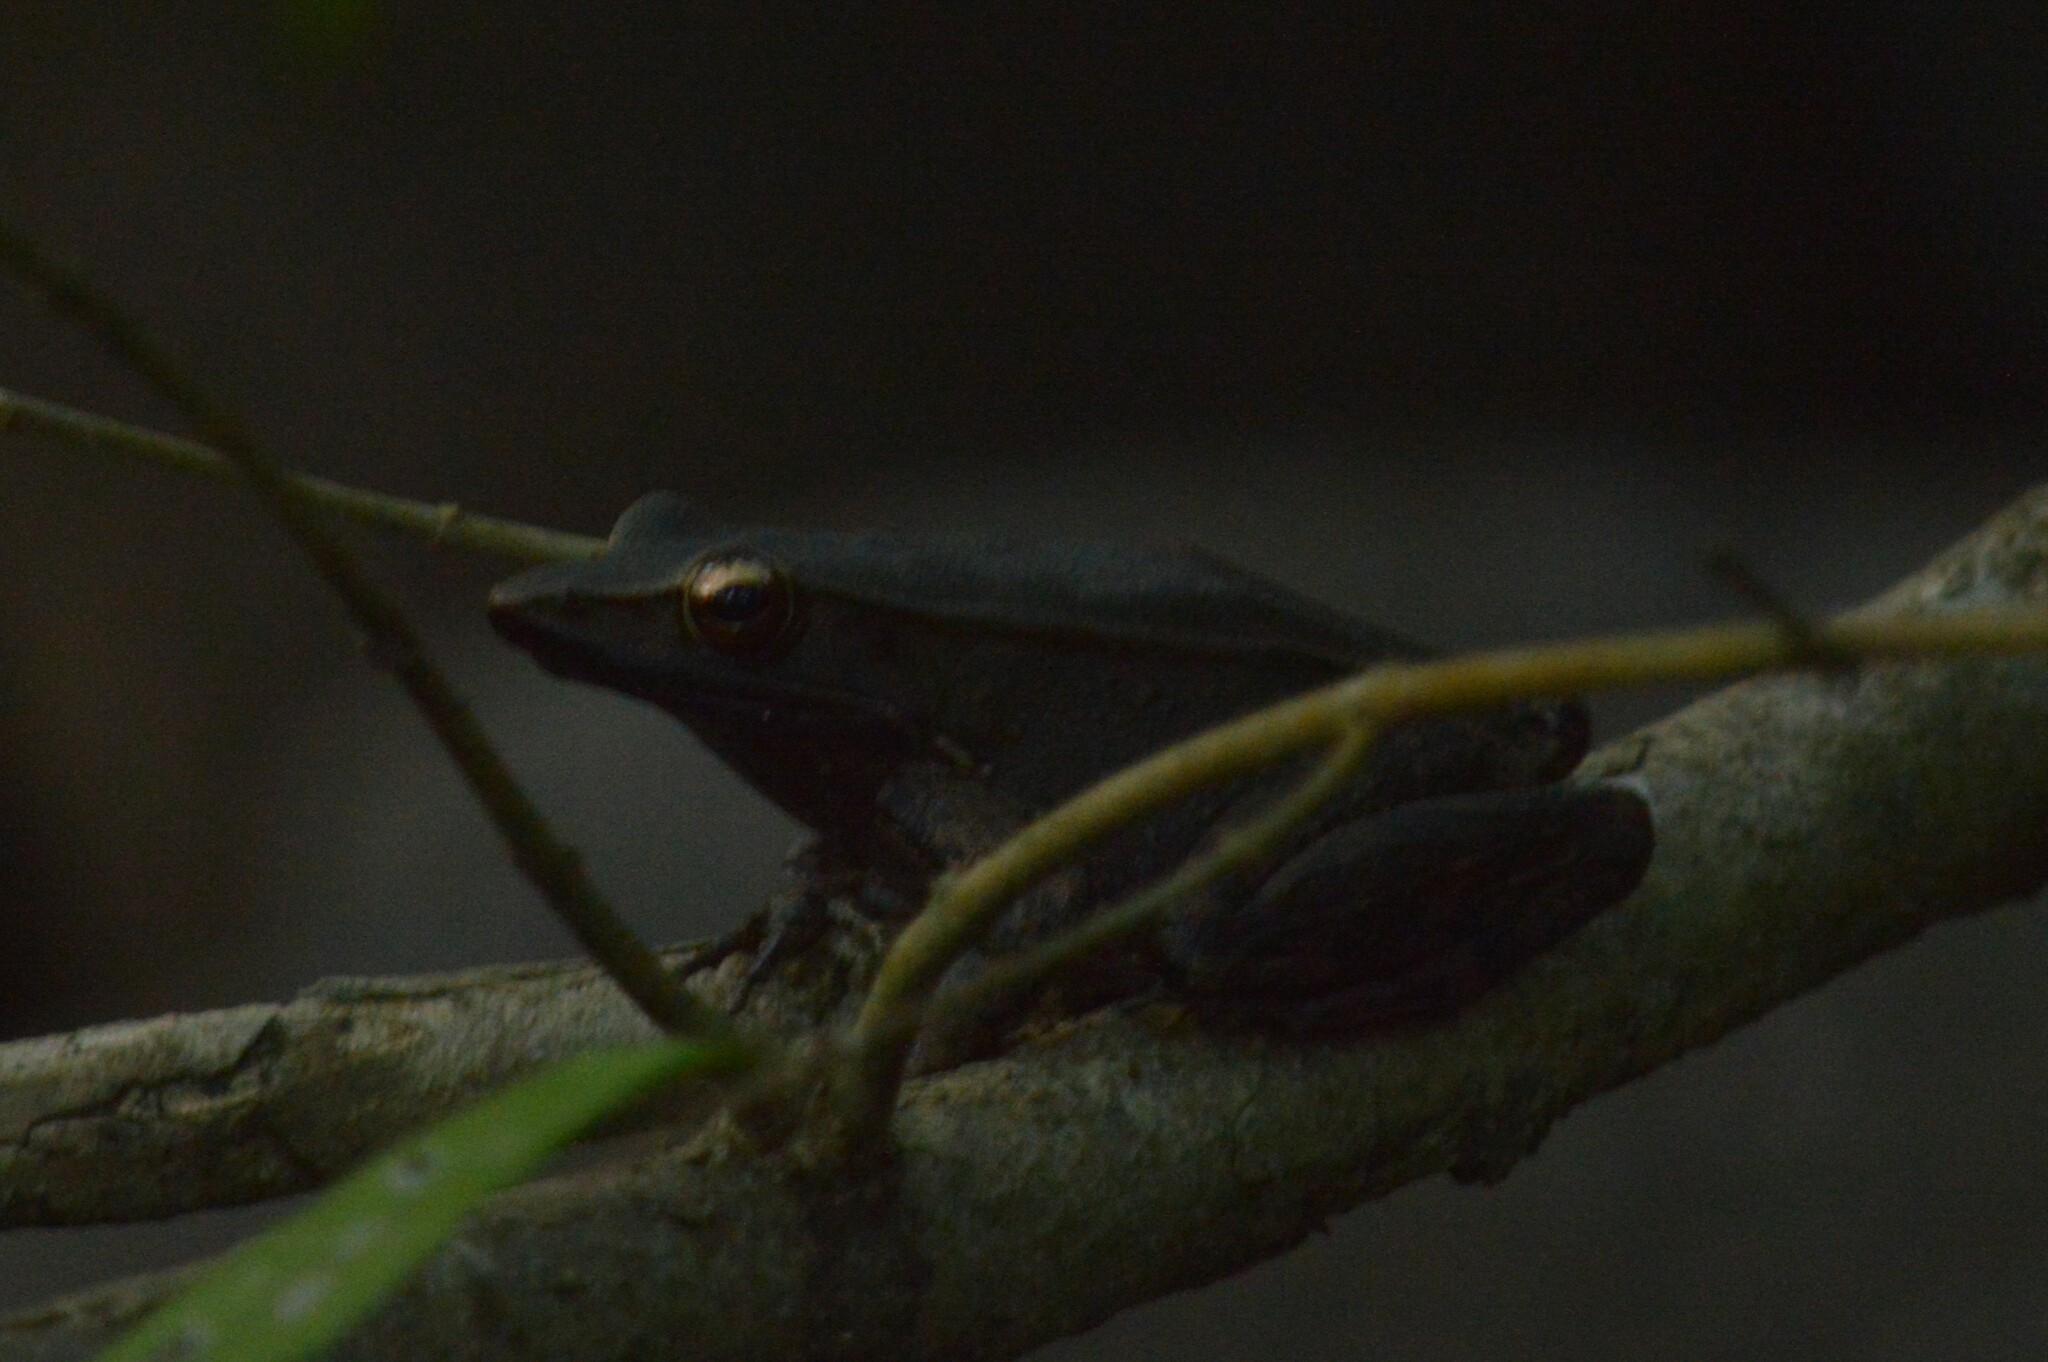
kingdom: Animalia
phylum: Chordata
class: Amphibia
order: Anura
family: Ranidae
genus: Indosylvirana
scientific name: Indosylvirana sreeni
